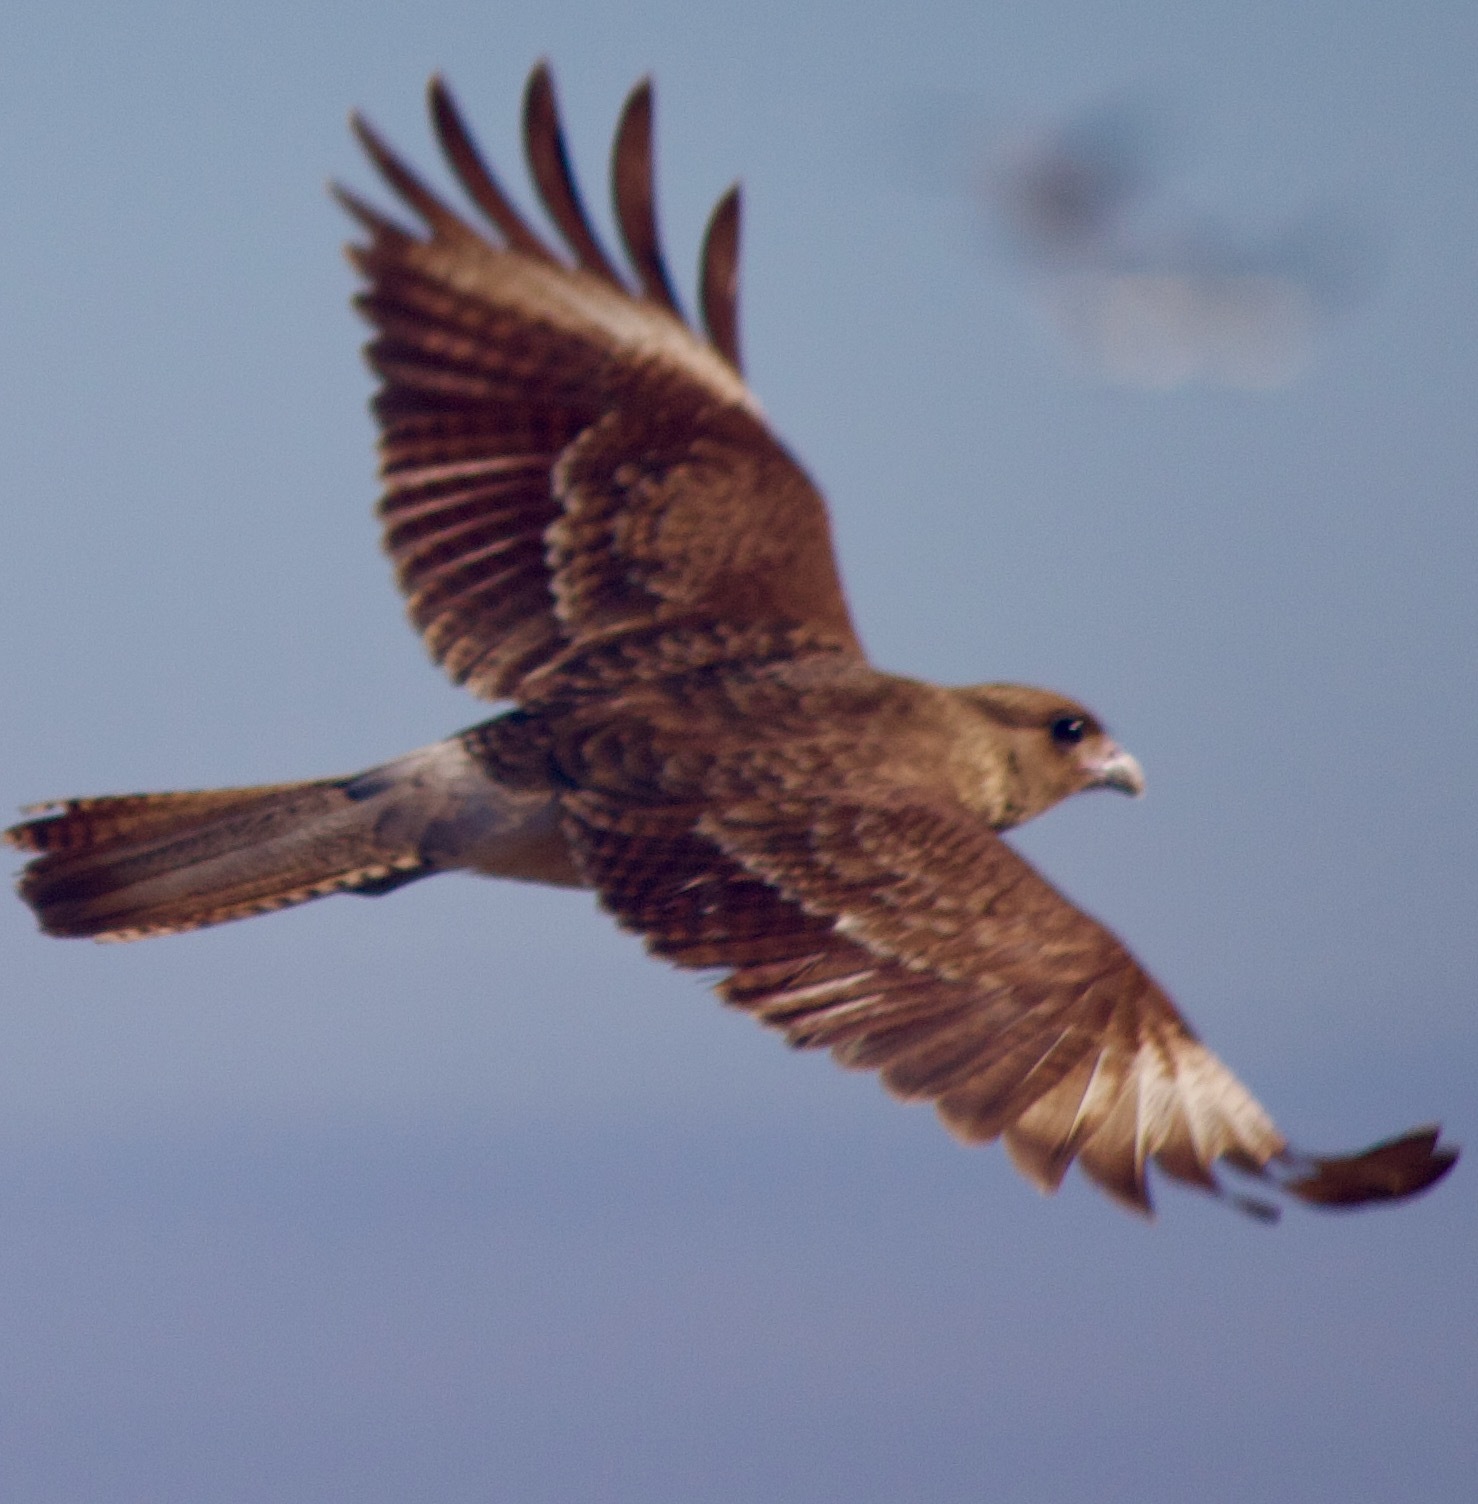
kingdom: Animalia
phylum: Chordata
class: Aves
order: Falconiformes
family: Falconidae
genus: Daptrius
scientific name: Daptrius
